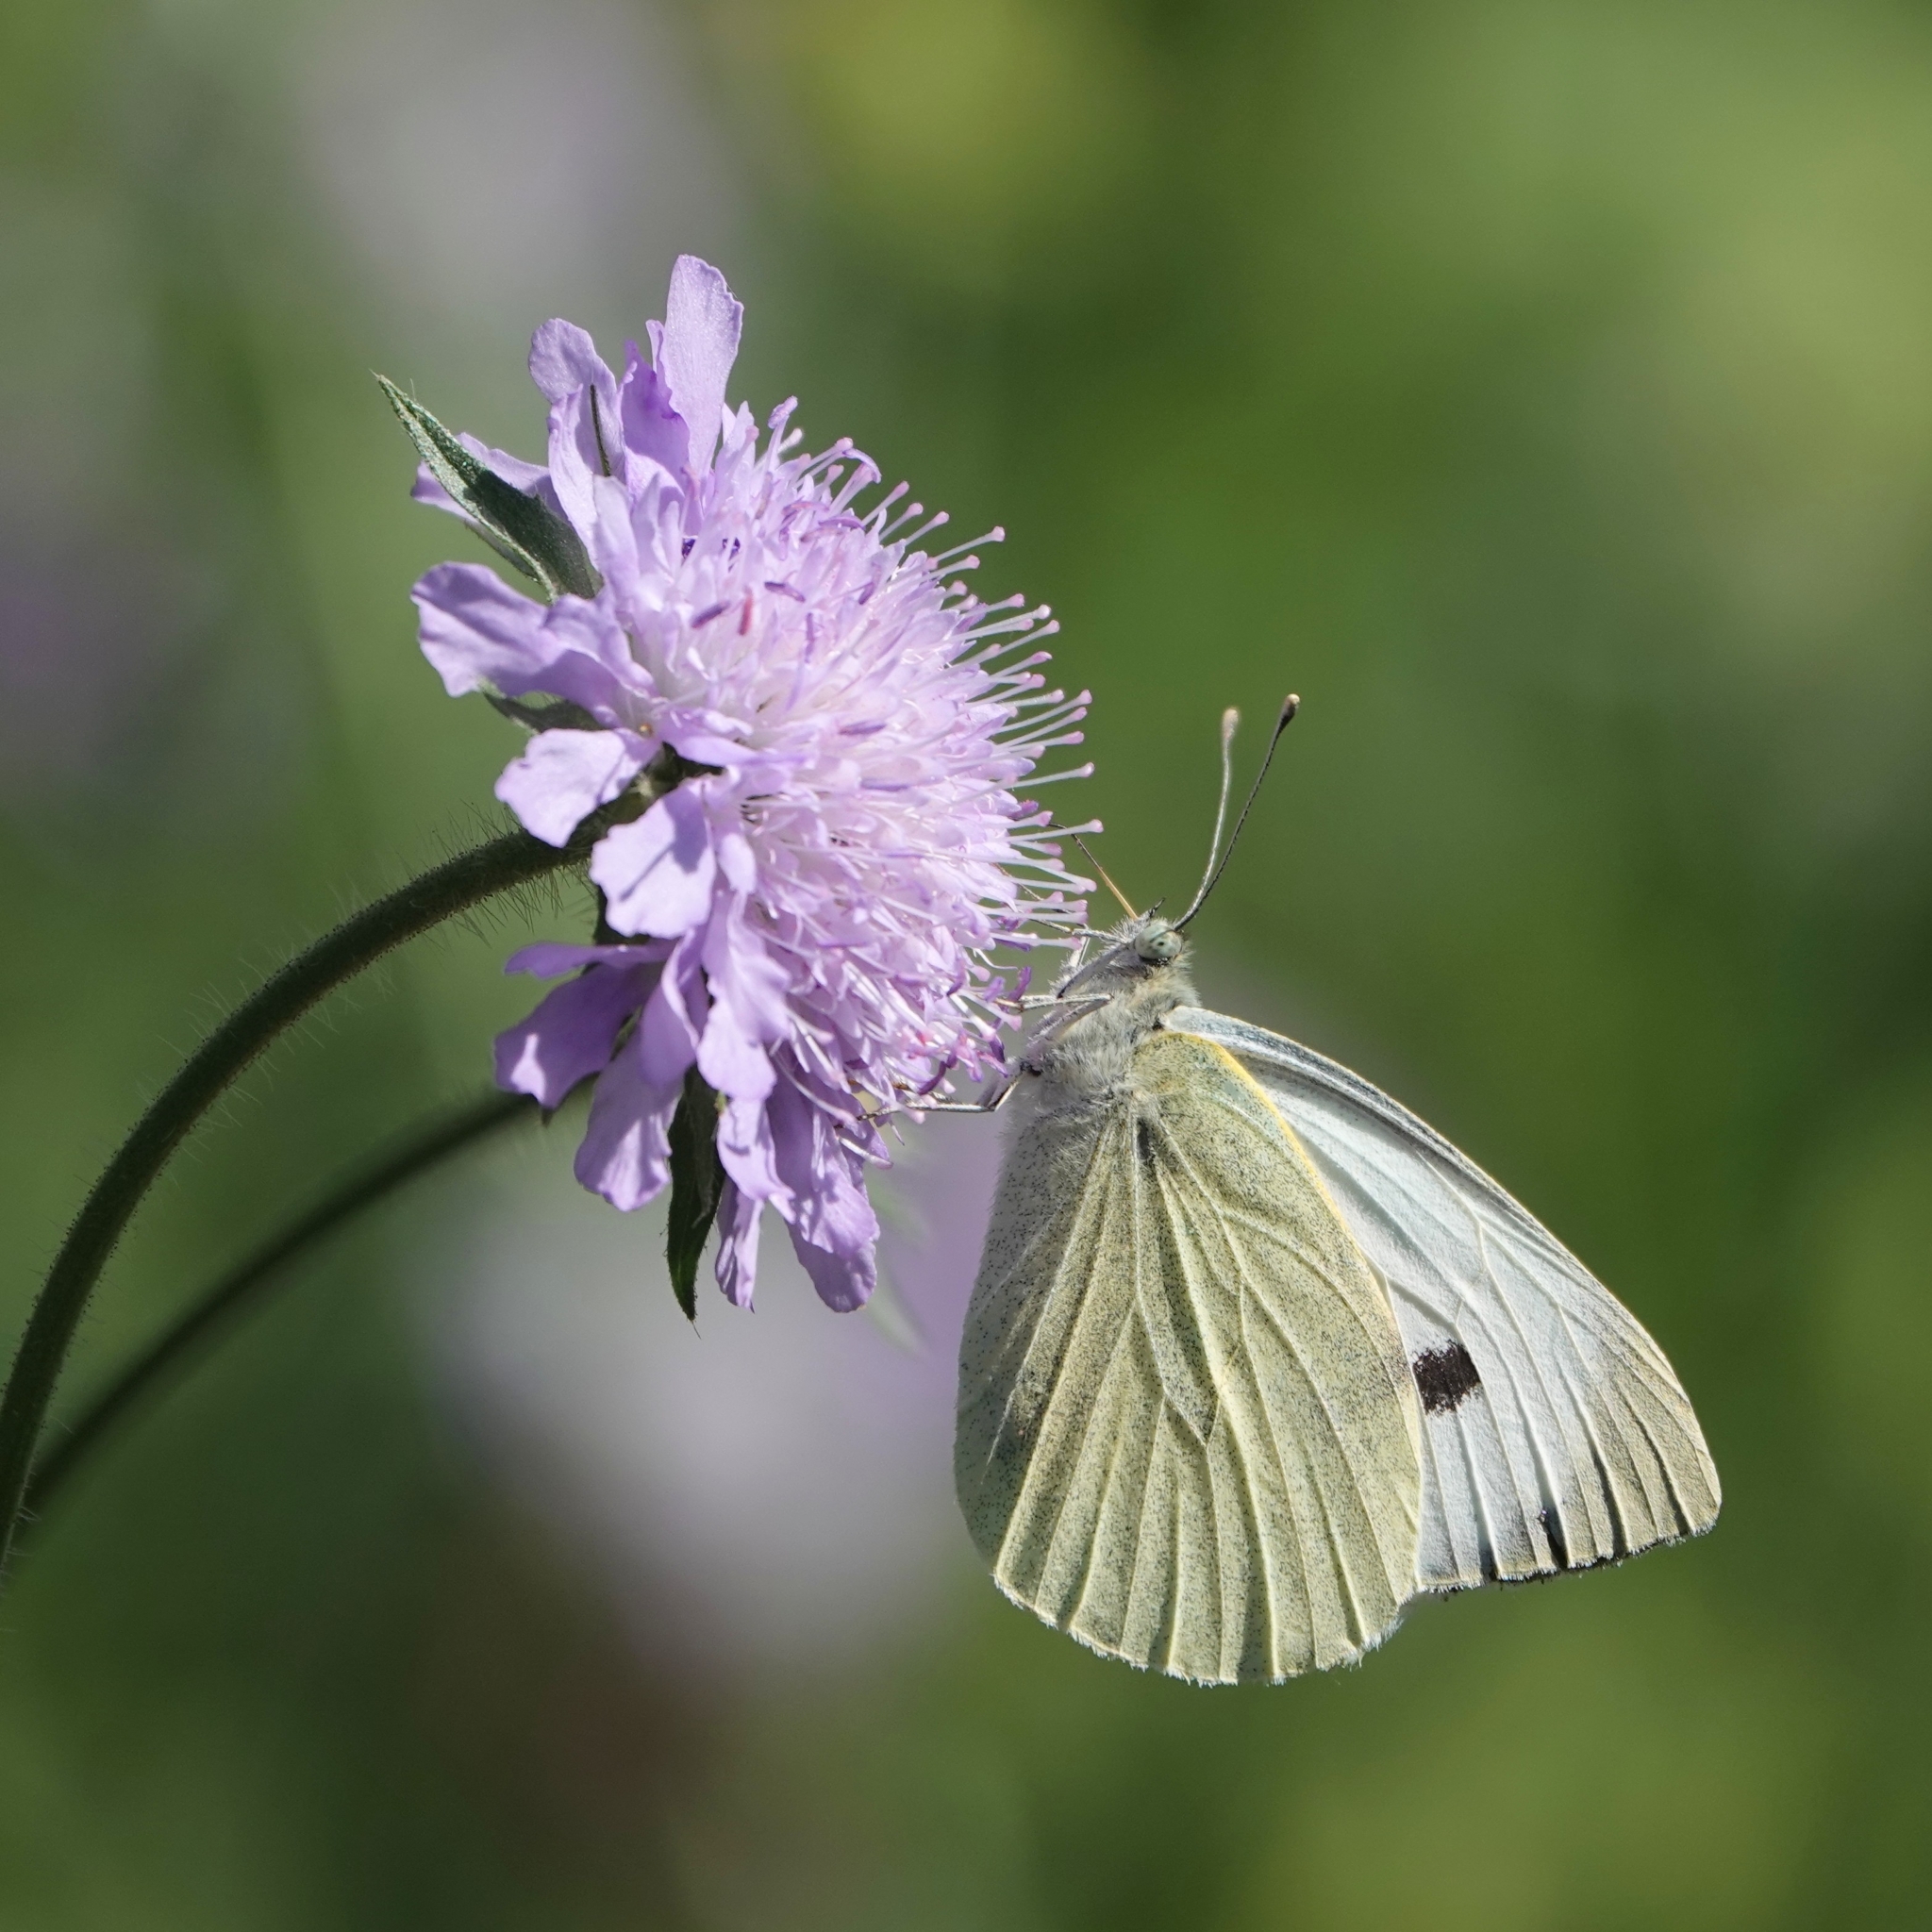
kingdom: Animalia
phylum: Arthropoda
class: Insecta
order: Lepidoptera
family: Pieridae
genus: Pieris
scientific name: Pieris brassicae
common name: Large white
